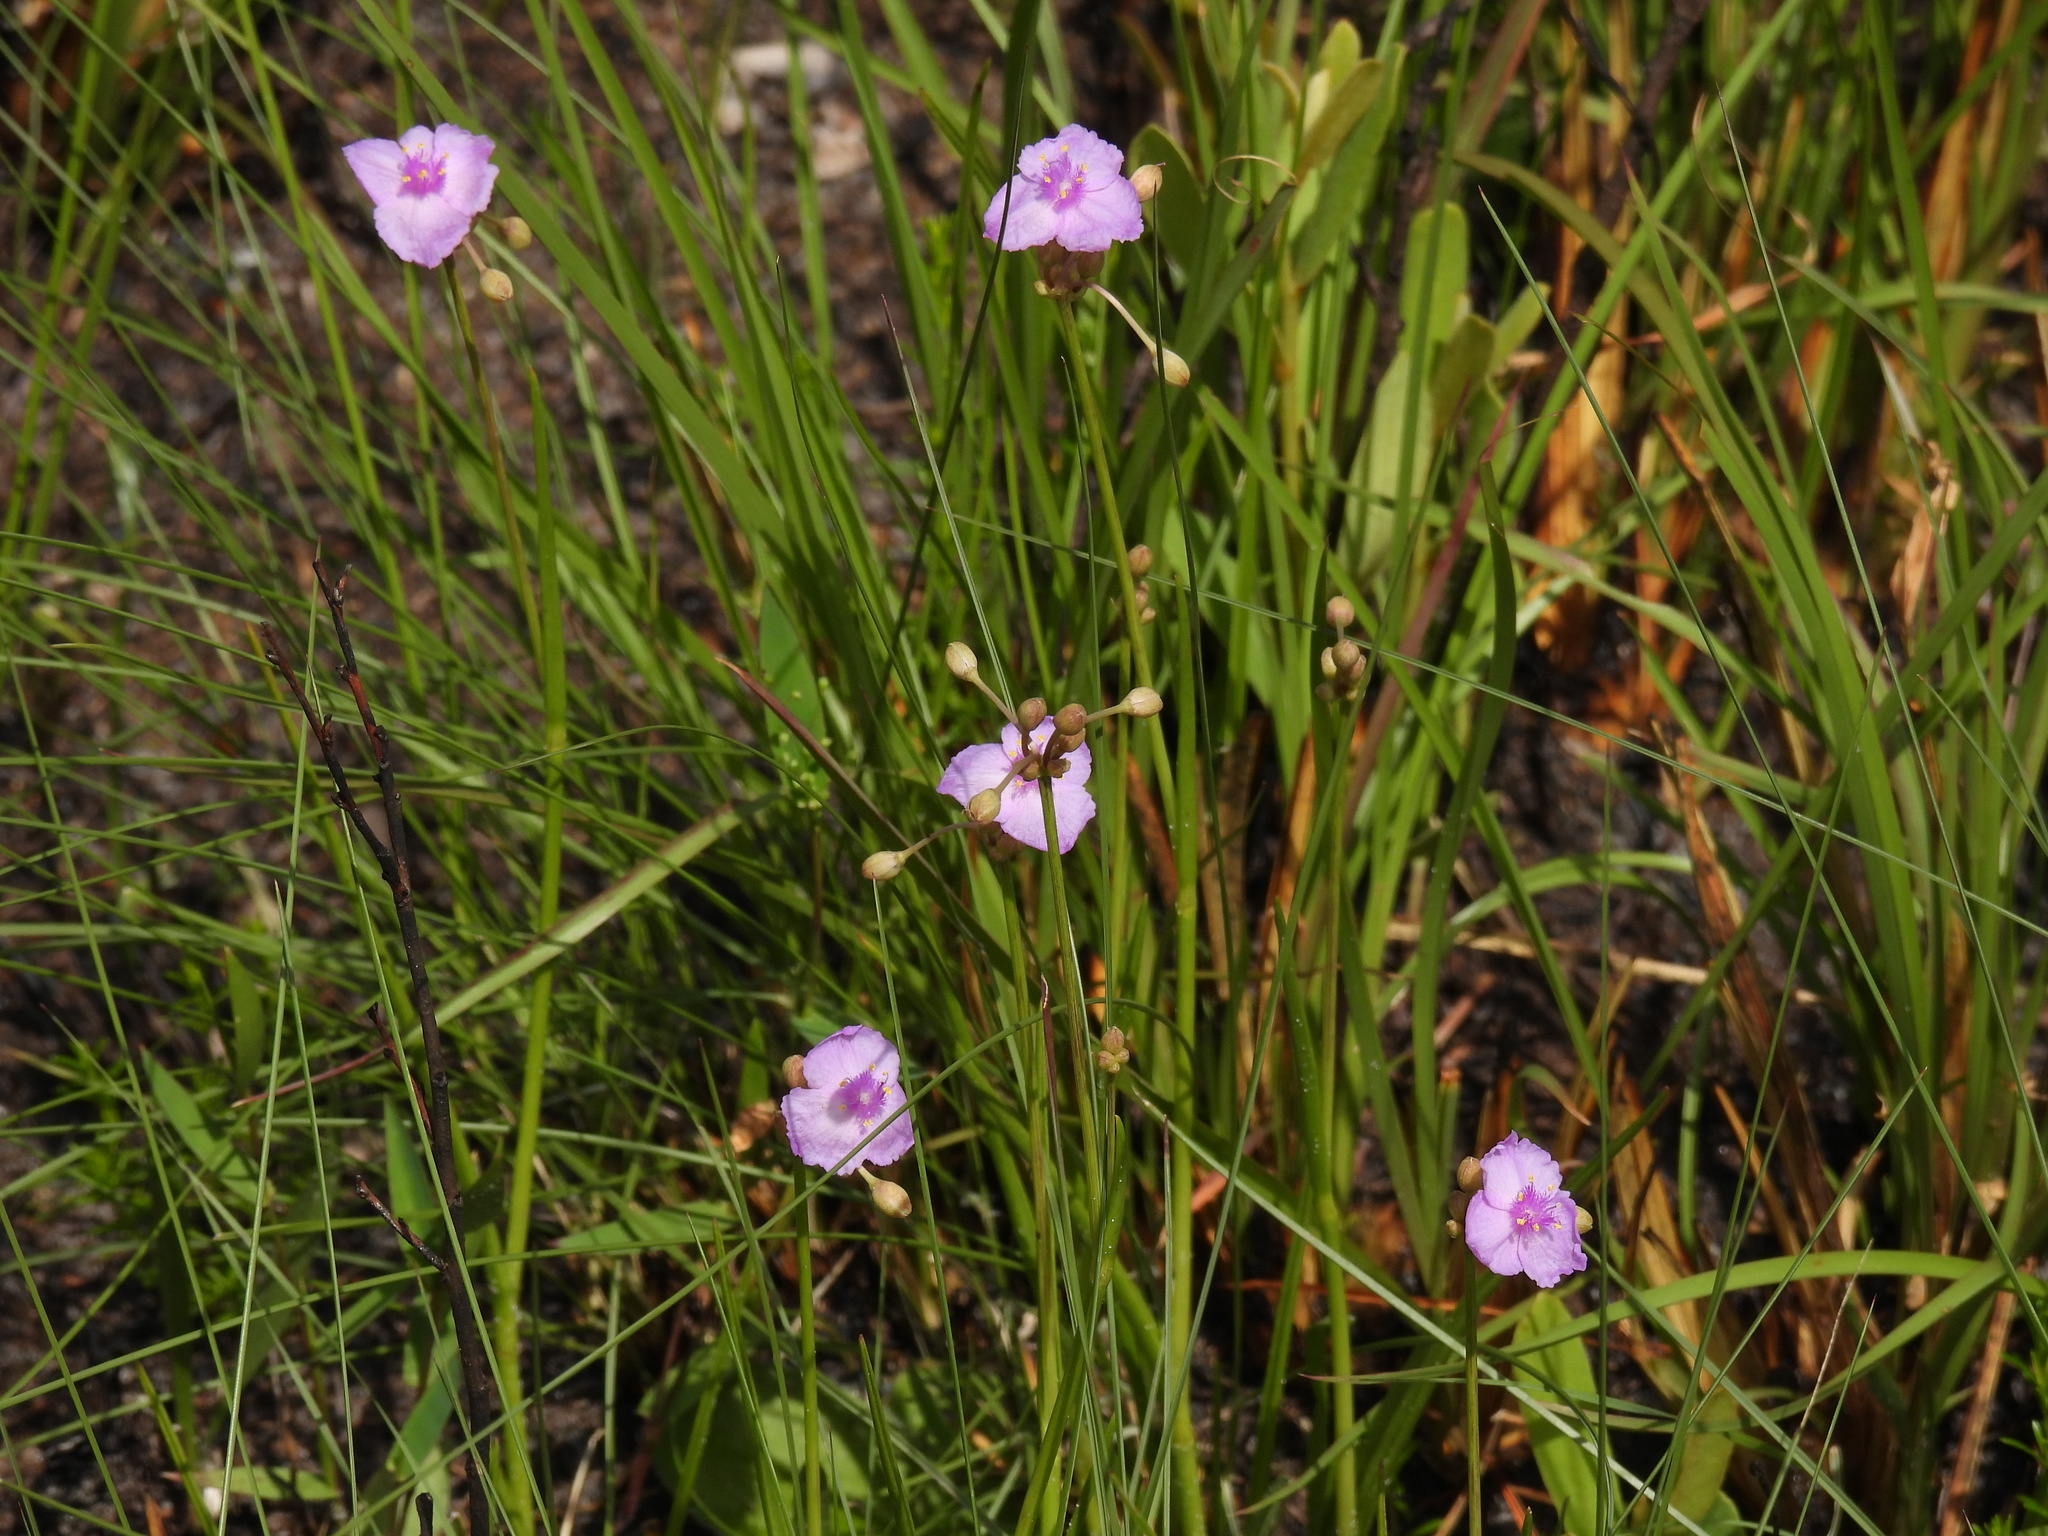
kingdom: Plantae
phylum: Tracheophyta
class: Liliopsida
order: Commelinales
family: Commelinaceae
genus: Callisia
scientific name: Callisia ornata
